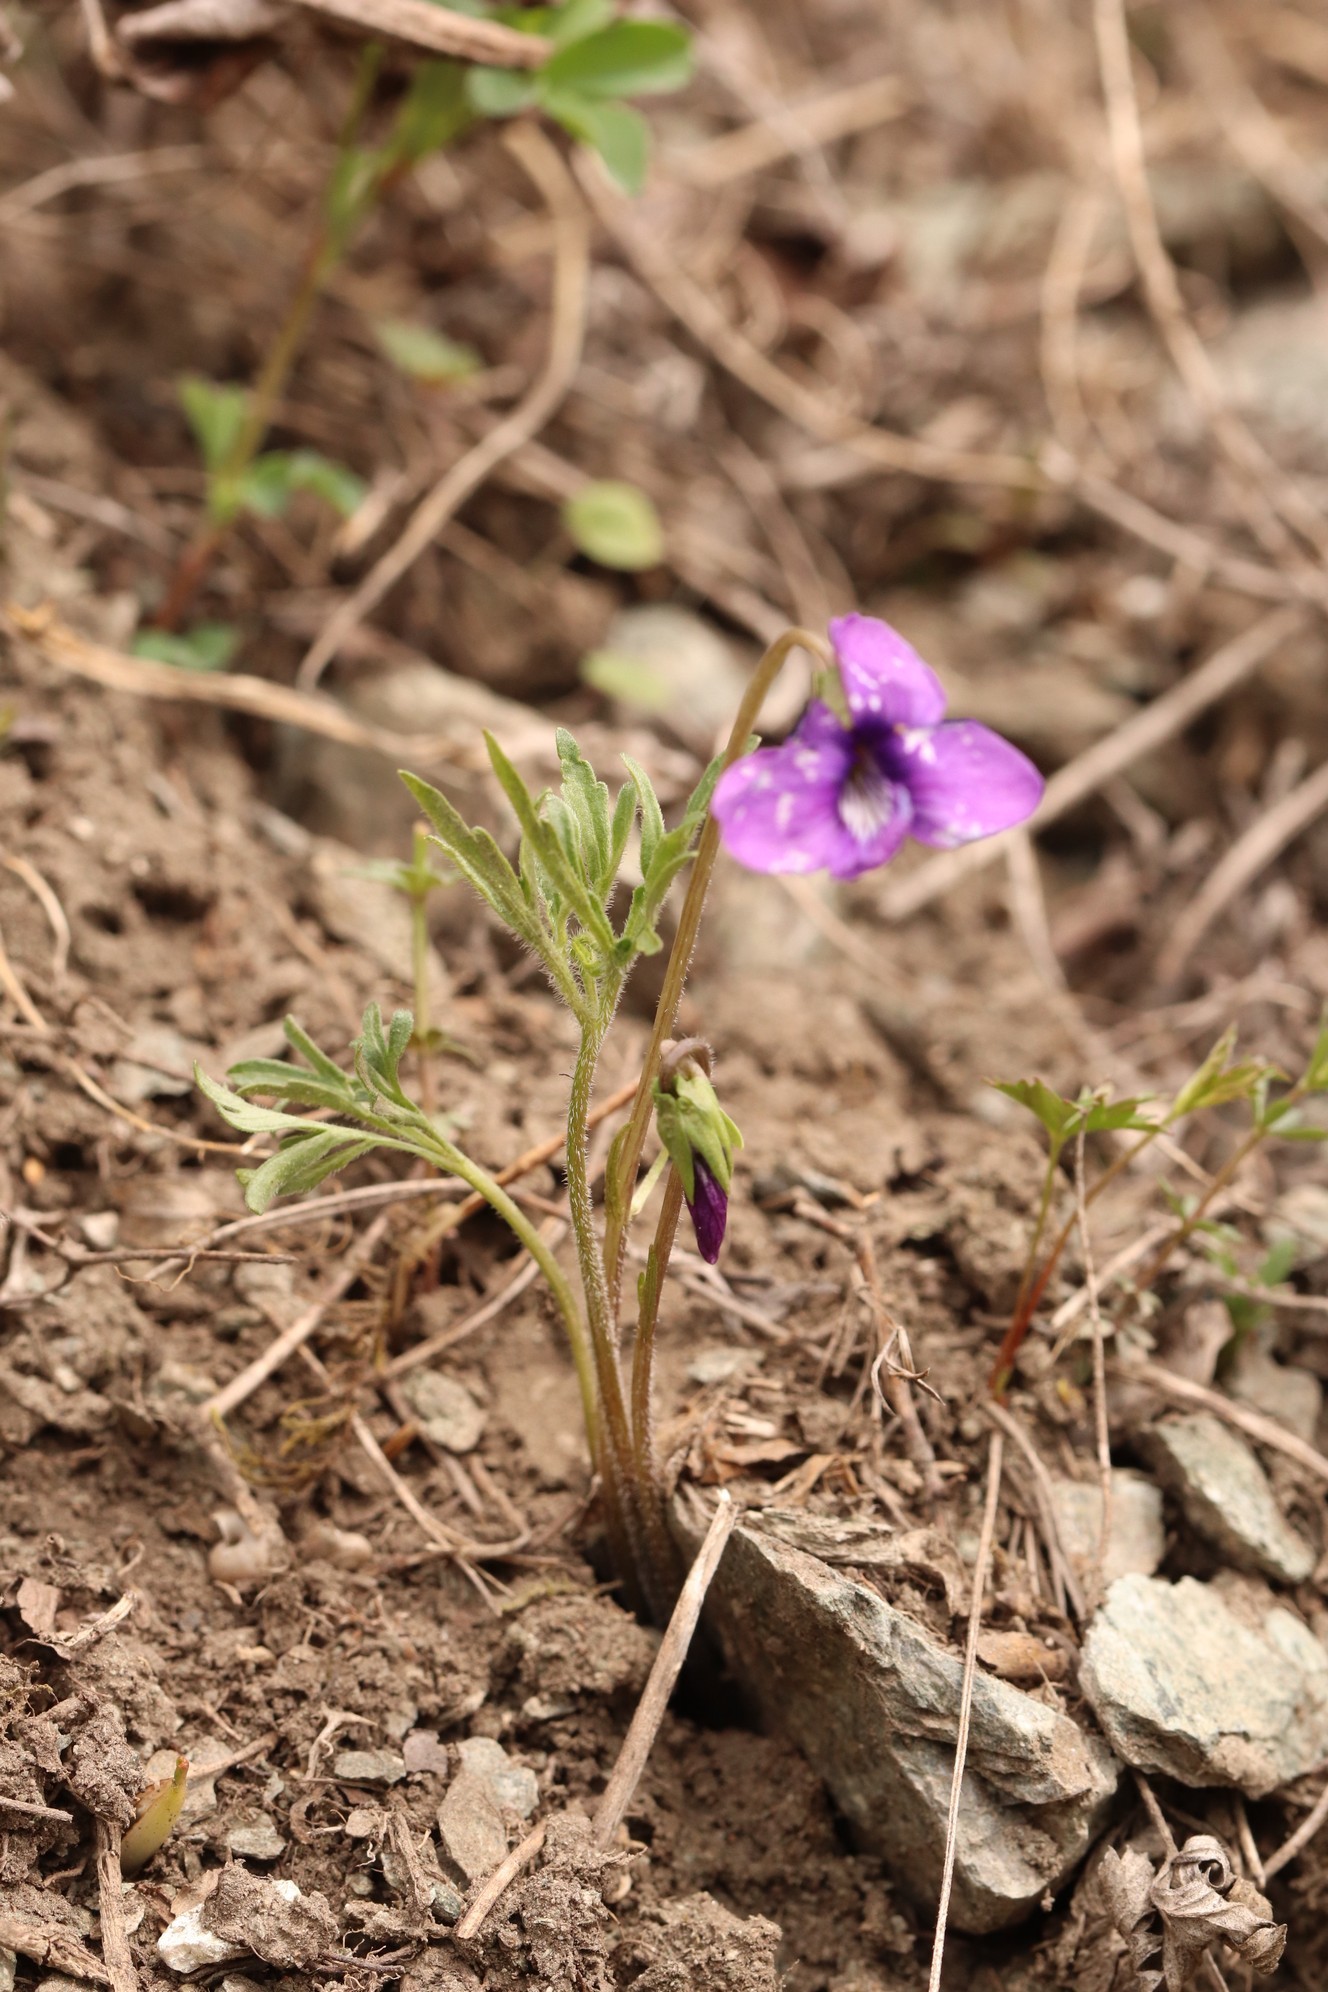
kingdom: Plantae
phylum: Tracheophyta
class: Magnoliopsida
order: Malpighiales
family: Violaceae
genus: Viola
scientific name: Viola multifida
